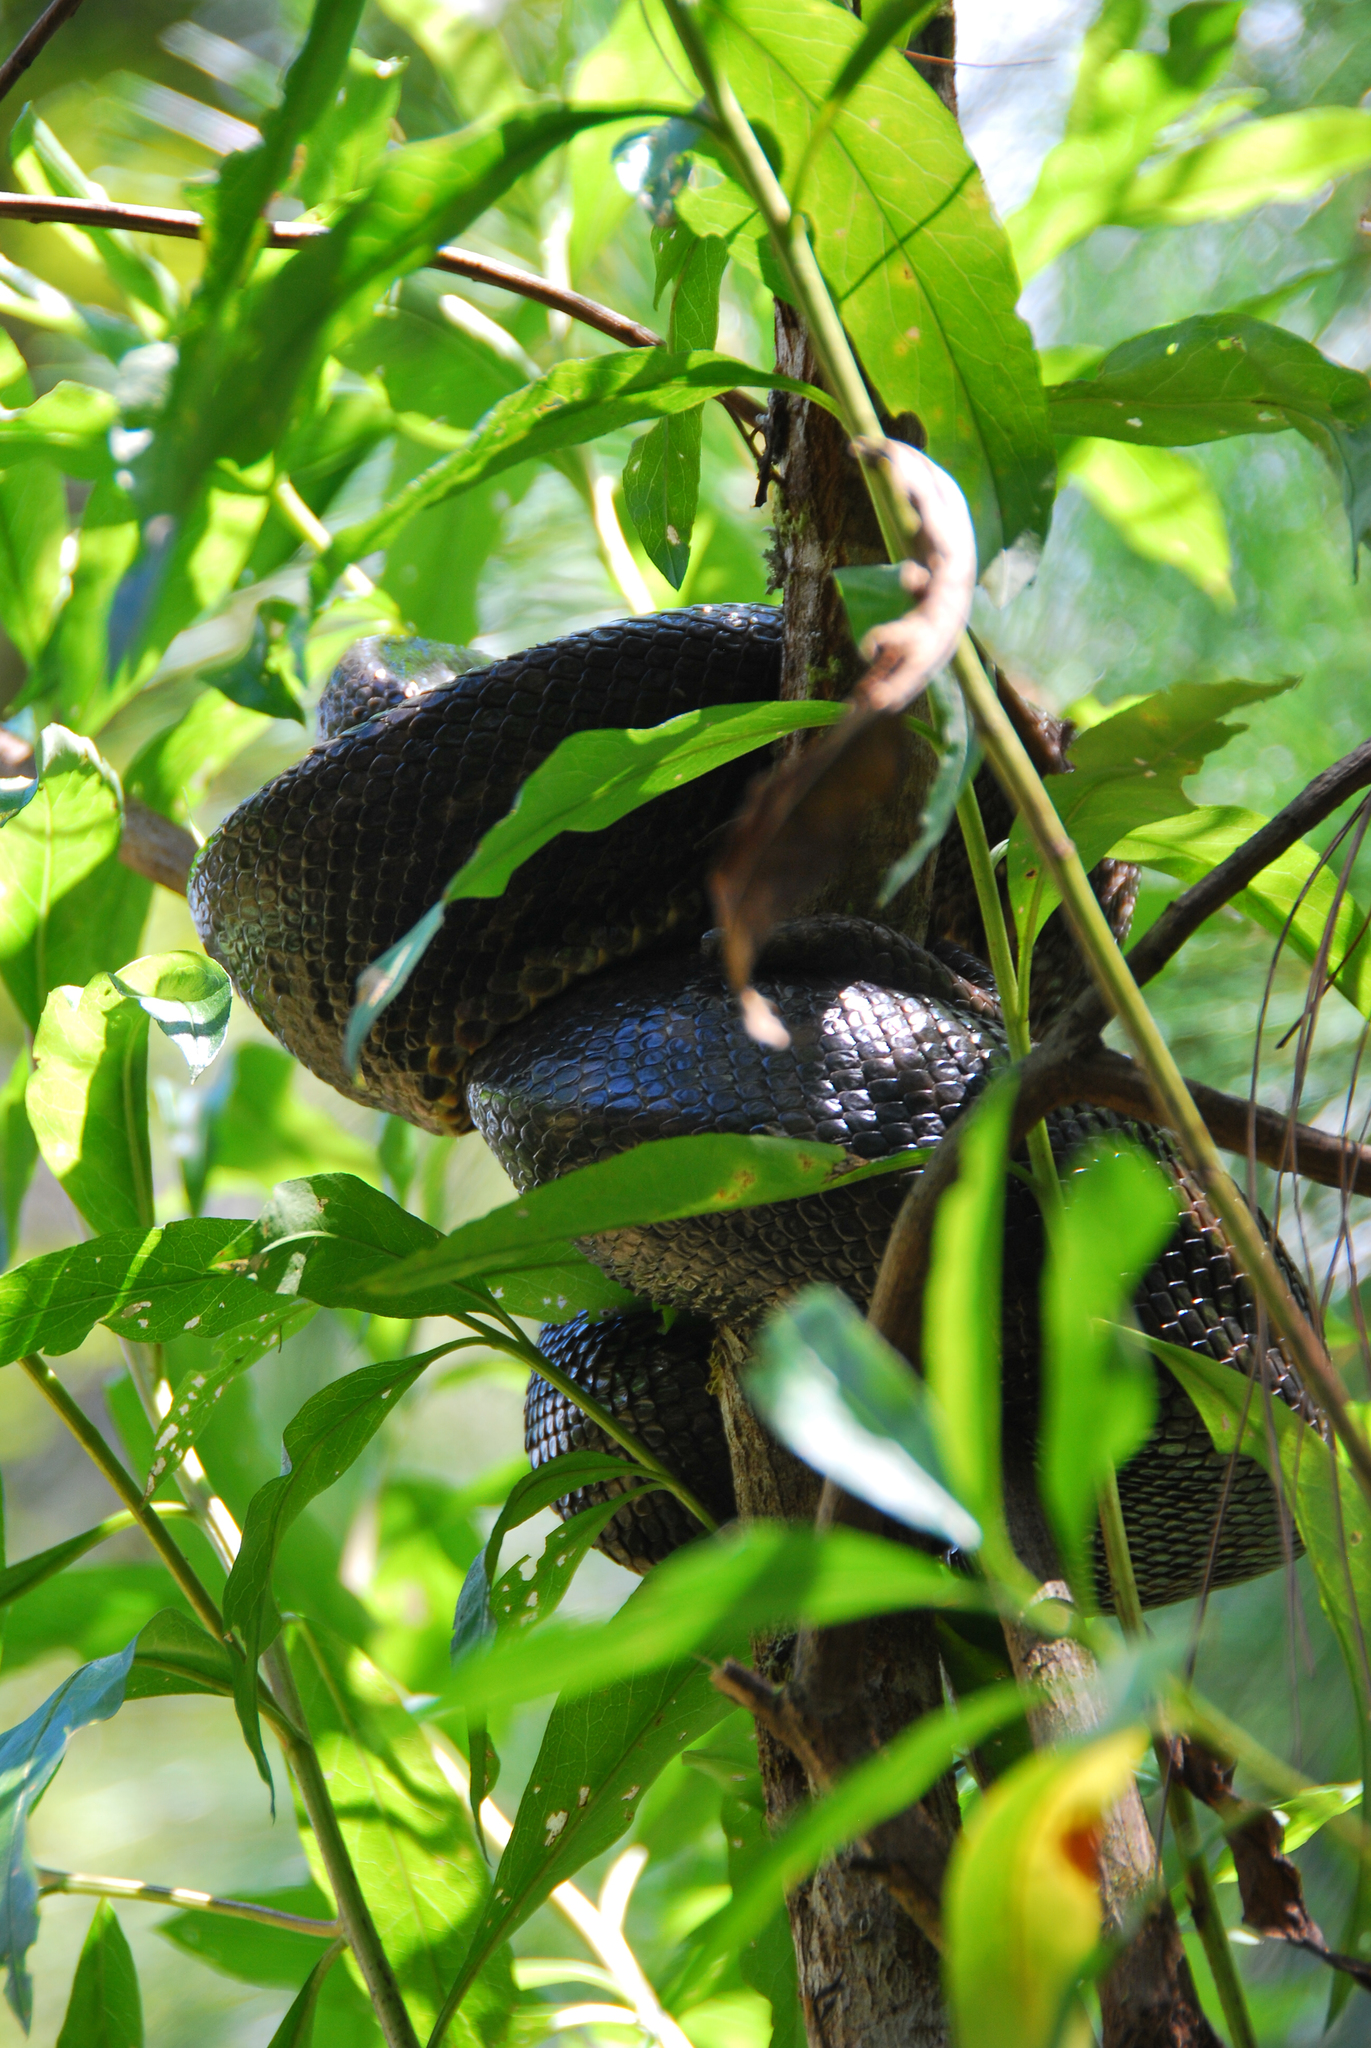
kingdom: Animalia
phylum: Chordata
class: Squamata
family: Boidae
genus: Sanzinia
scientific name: Sanzinia madagascariensis
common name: Madagascar tree boa
